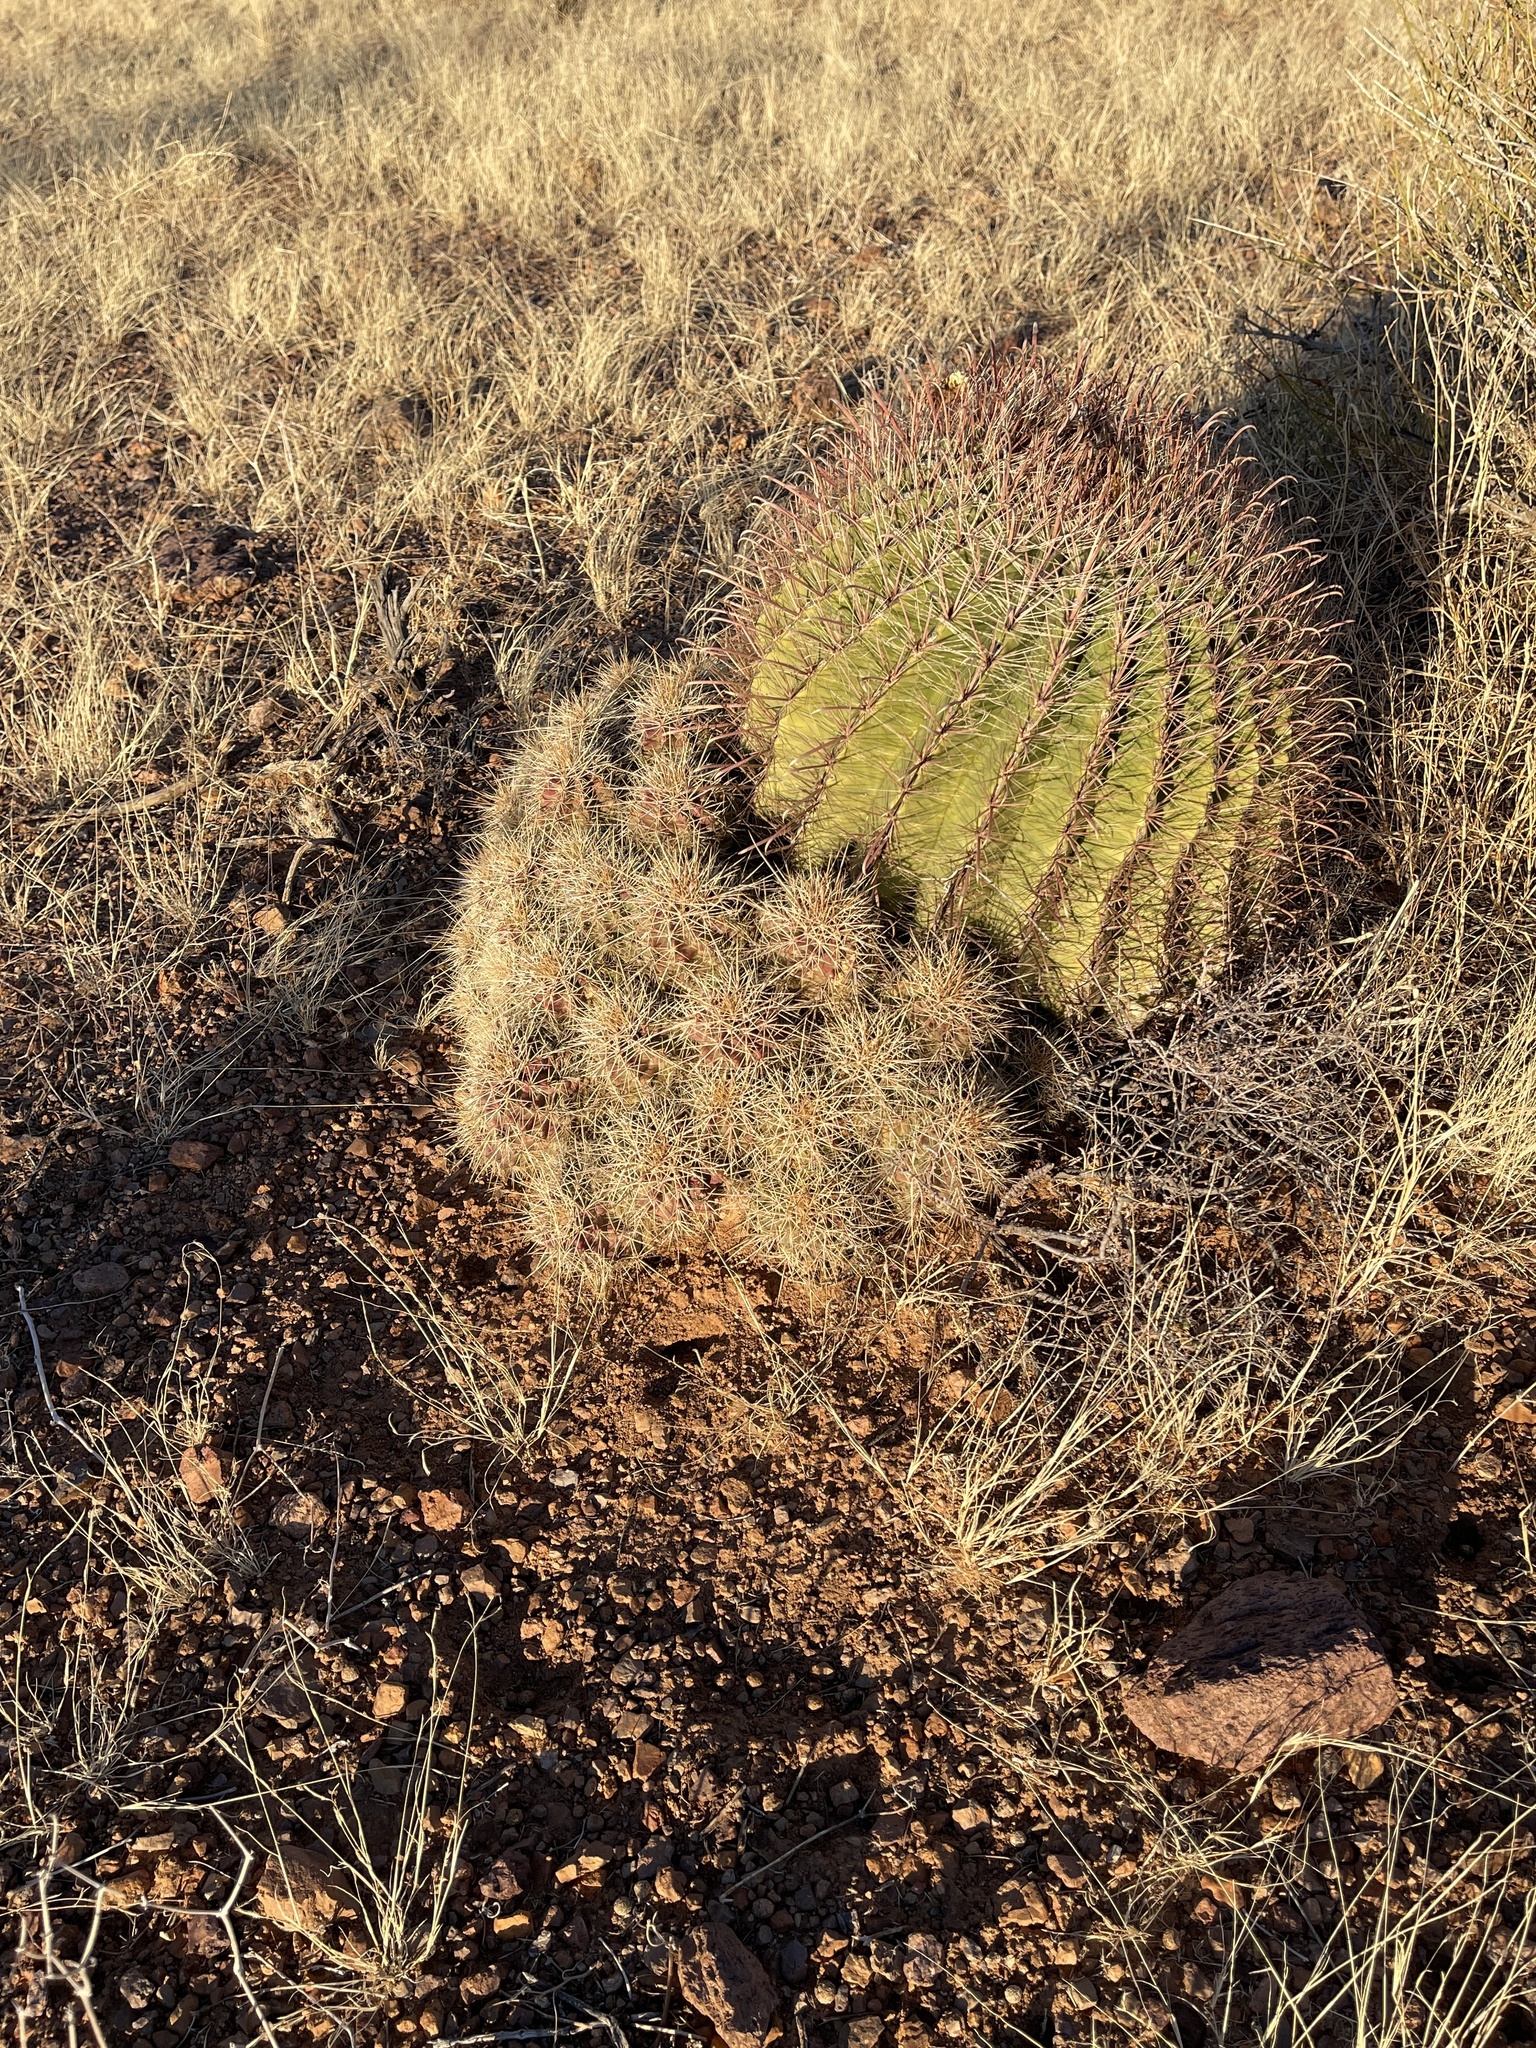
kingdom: Plantae
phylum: Tracheophyta
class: Magnoliopsida
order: Caryophyllales
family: Cactaceae
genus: Echinocereus
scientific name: Echinocereus coccineus
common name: Scarlet hedgehog cactus
